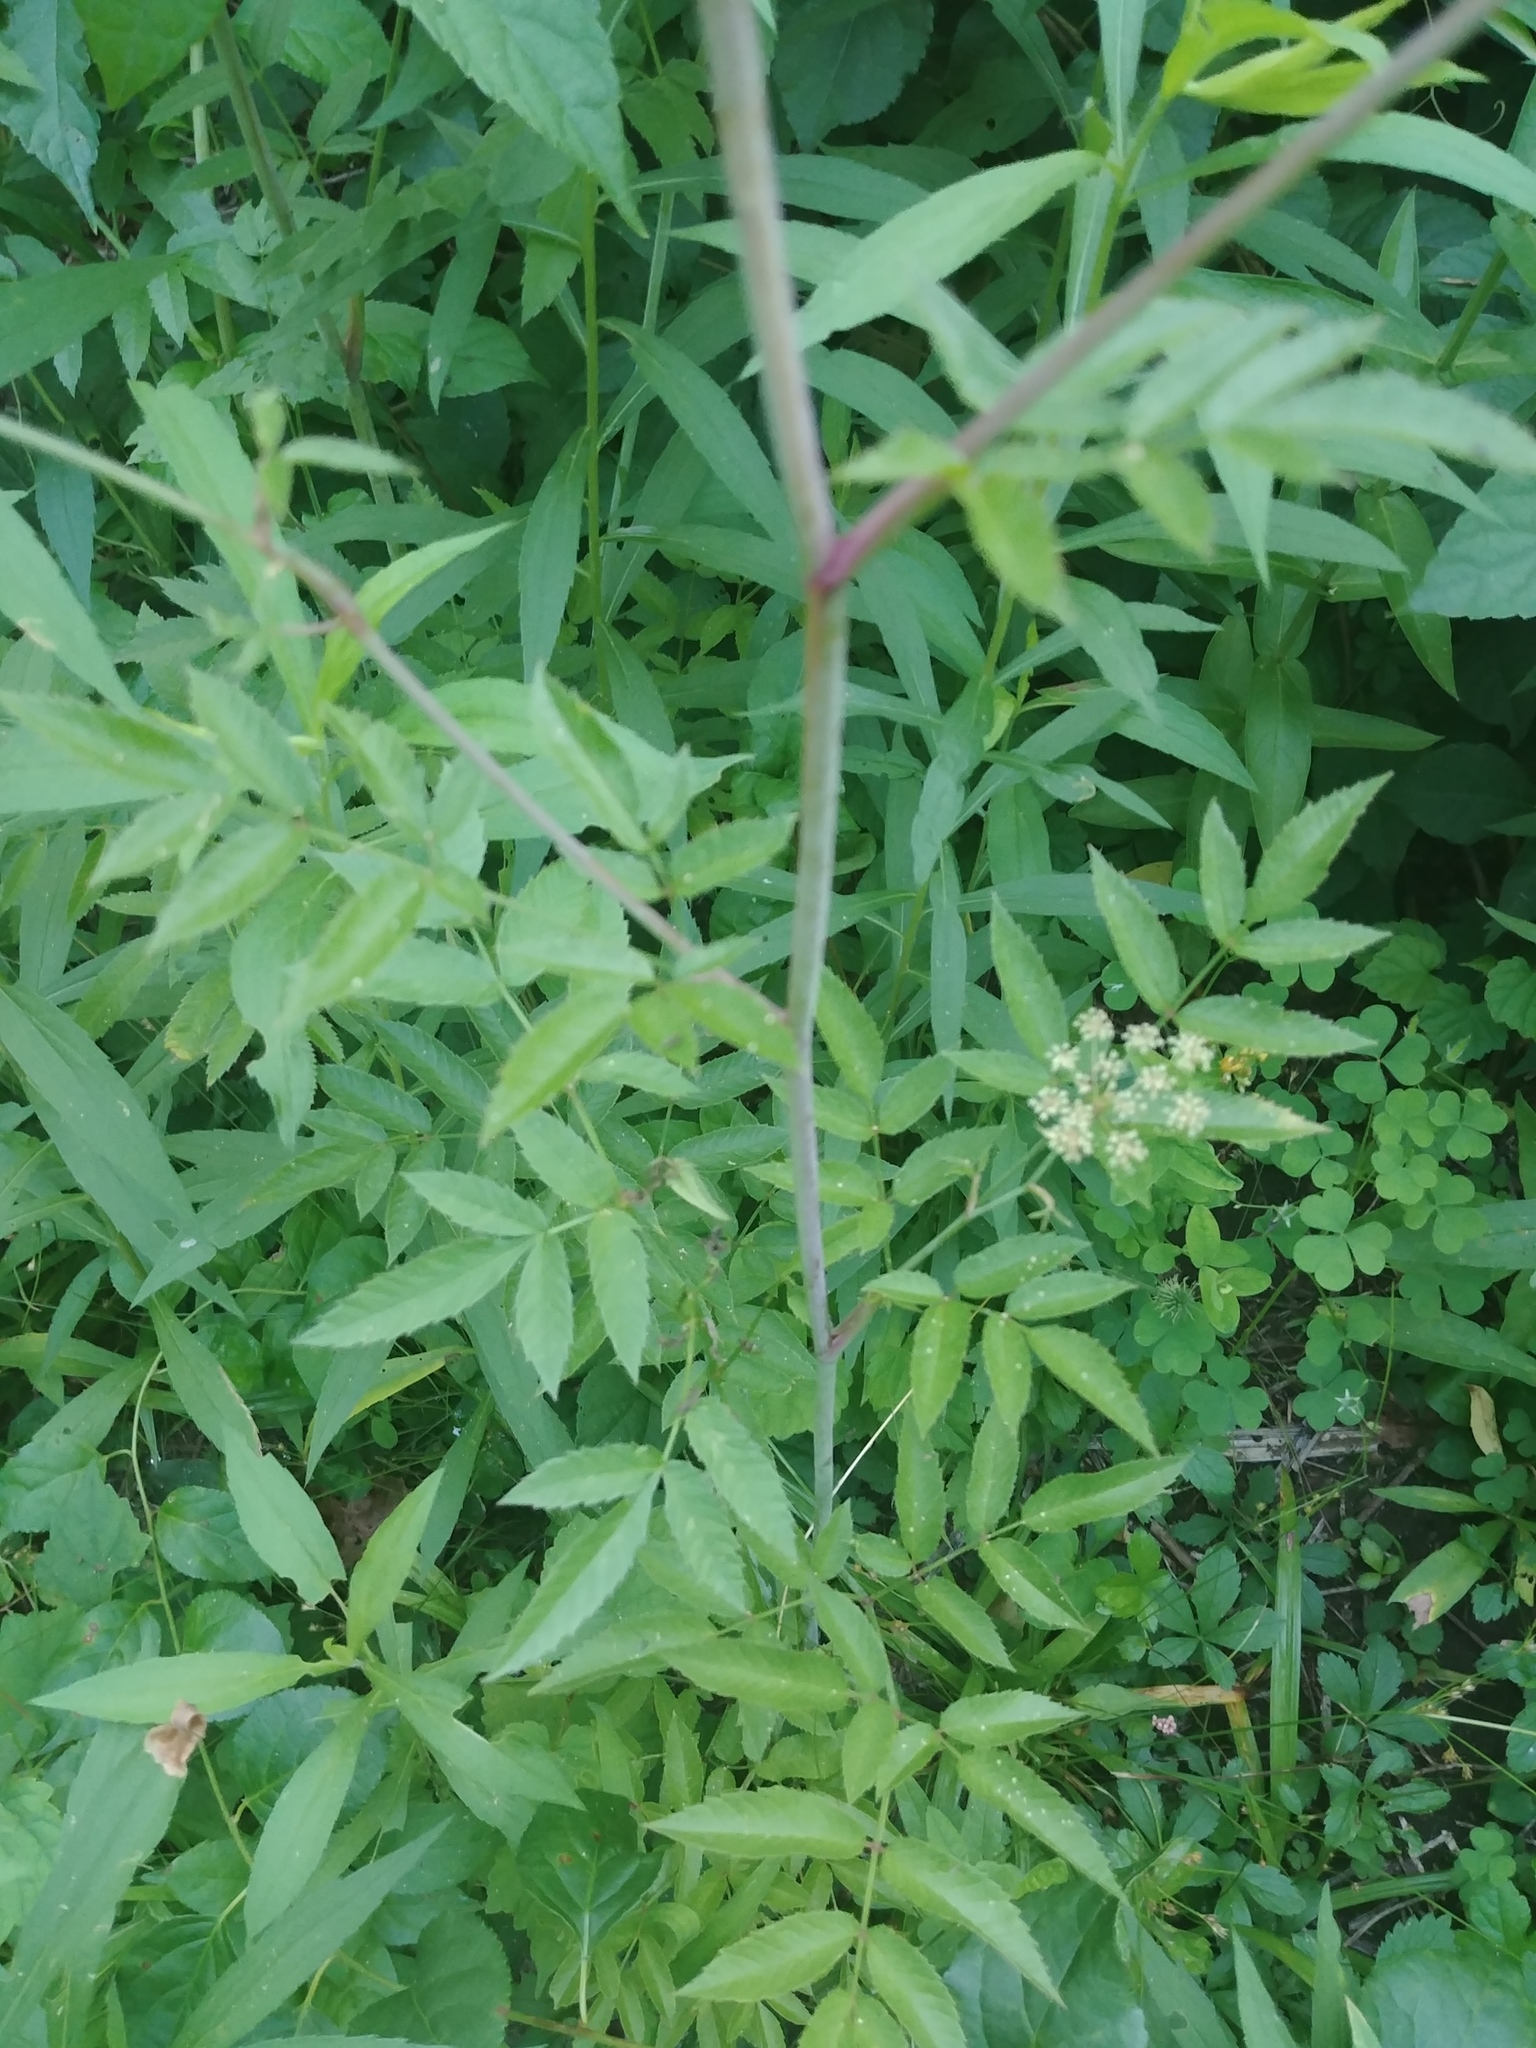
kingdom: Plantae
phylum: Tracheophyta
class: Magnoliopsida
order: Apiales
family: Apiaceae
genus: Cicuta
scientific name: Cicuta maculata
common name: Spotted cowbane
